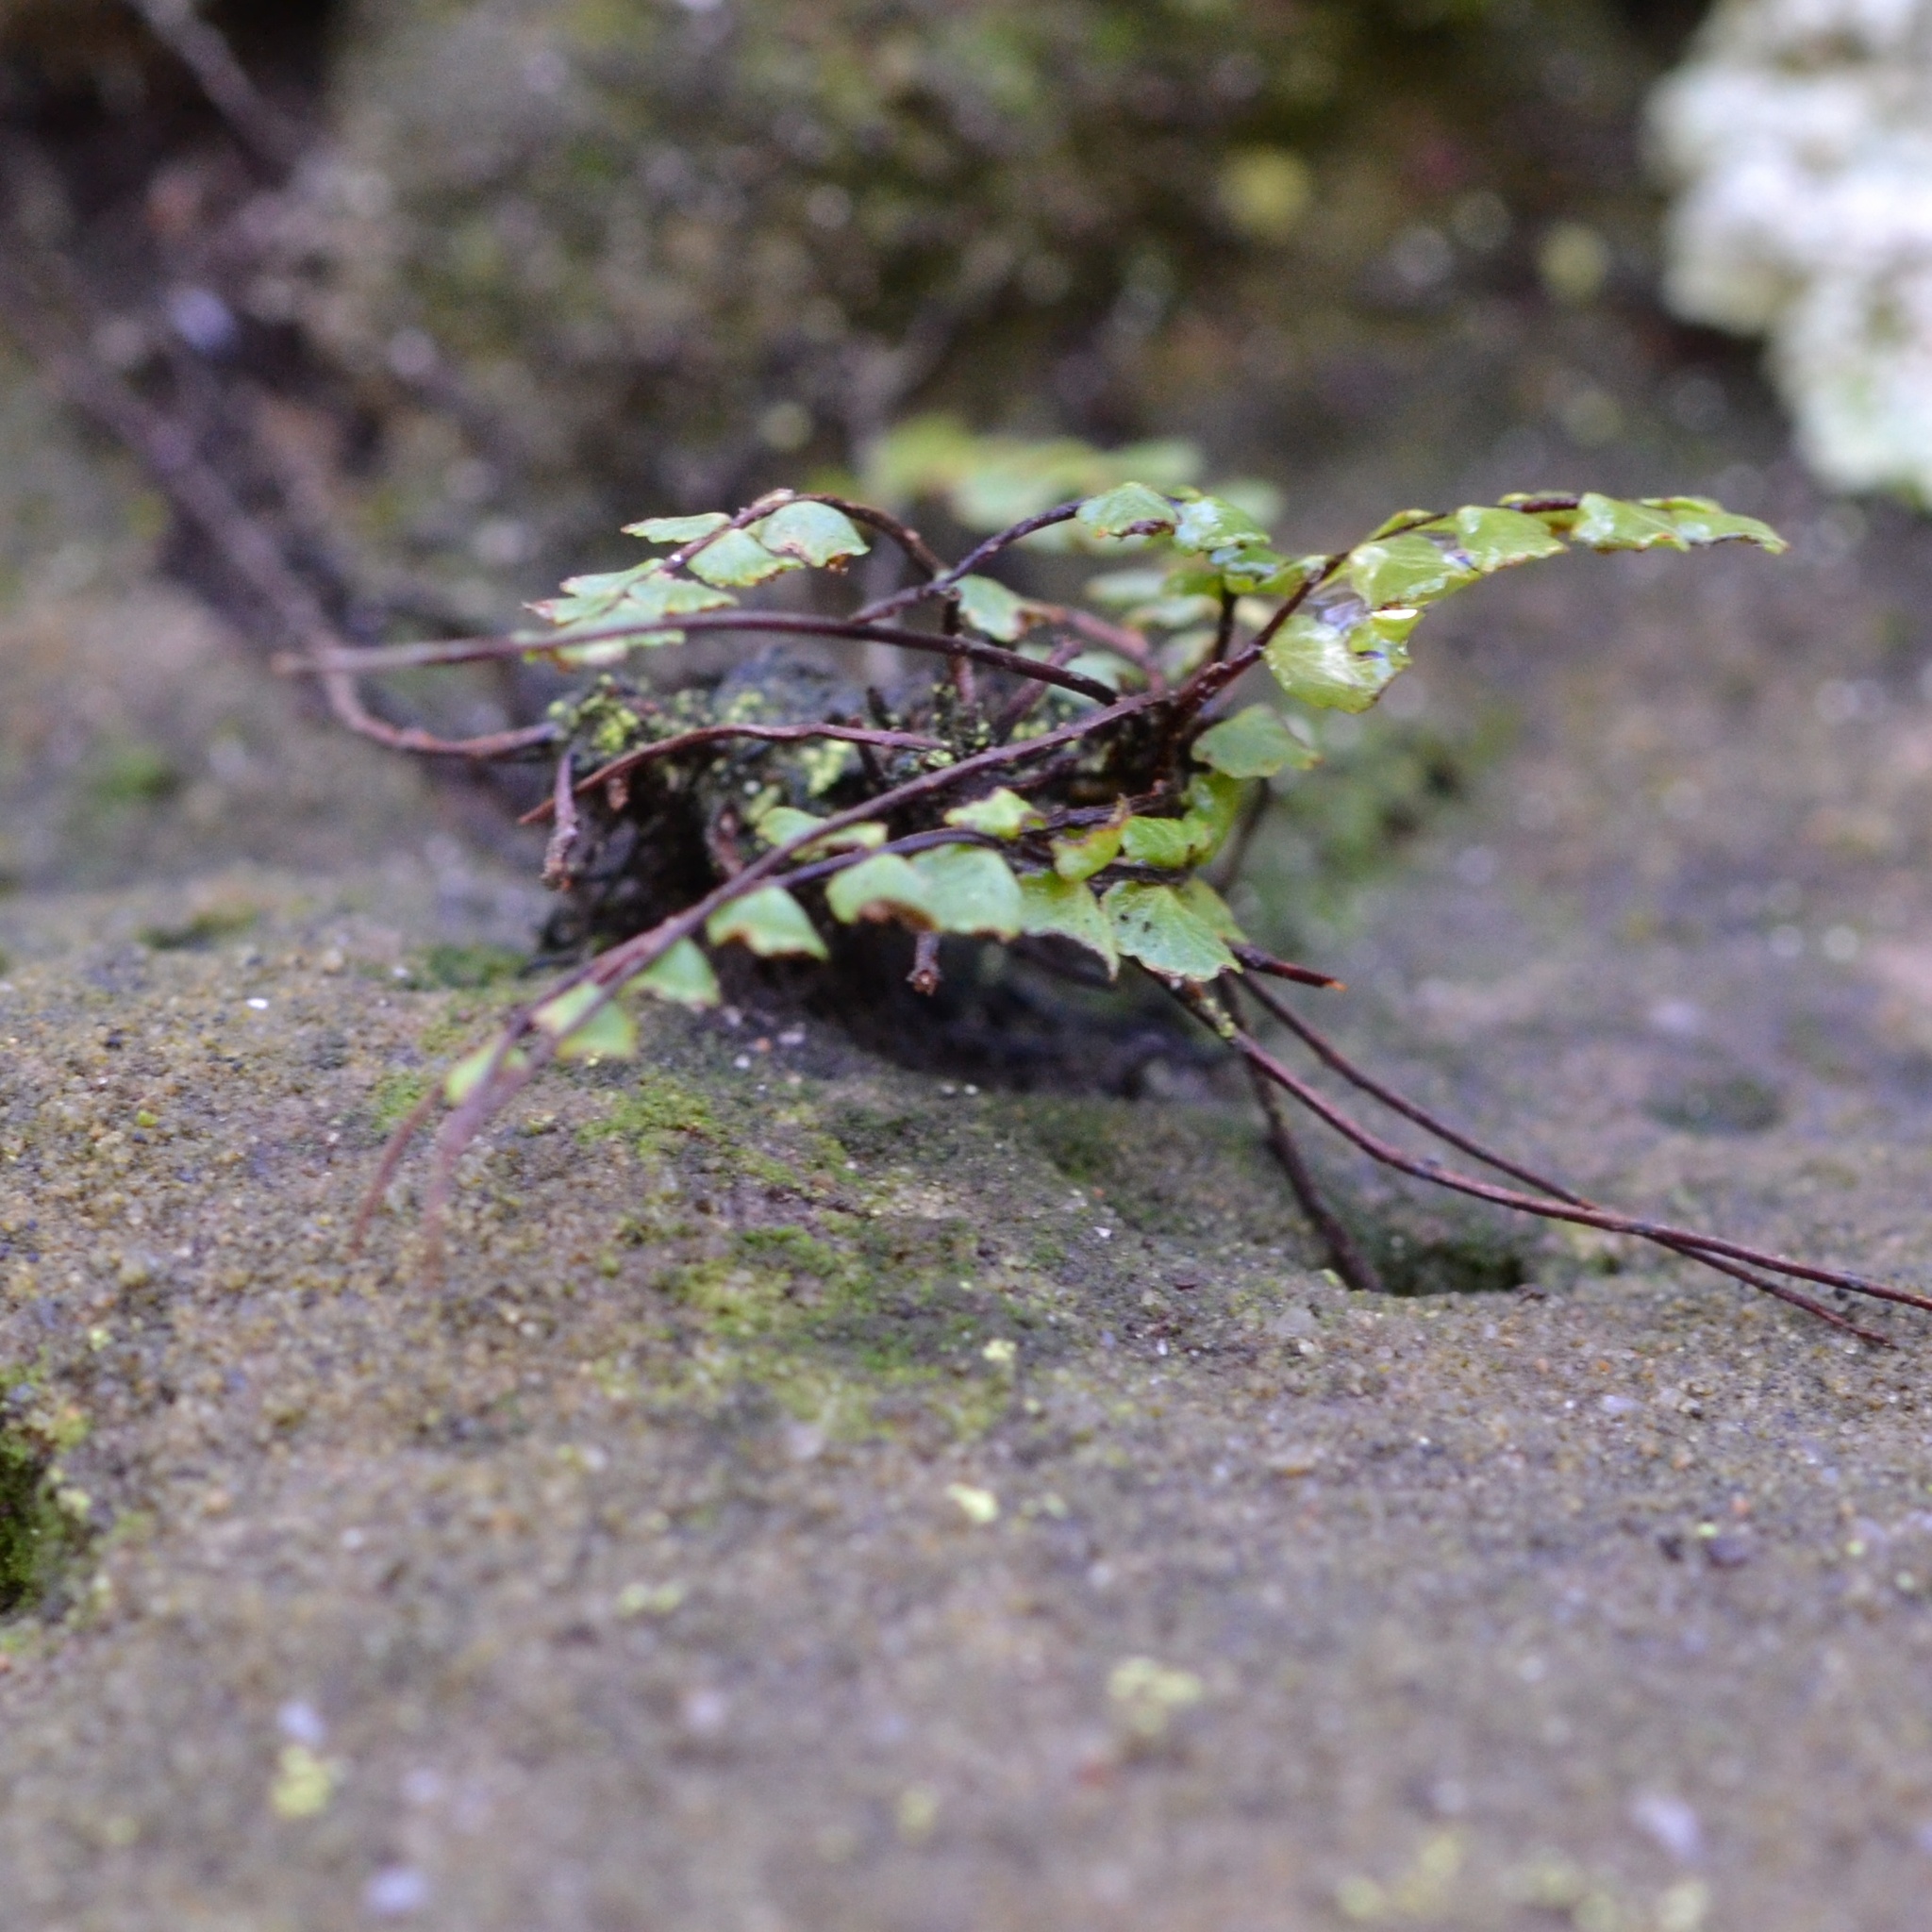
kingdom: Plantae
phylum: Tracheophyta
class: Polypodiopsida
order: Polypodiales
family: Aspleniaceae
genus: Asplenium
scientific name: Asplenium trichomanes
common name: Maidenhair spleenwort
